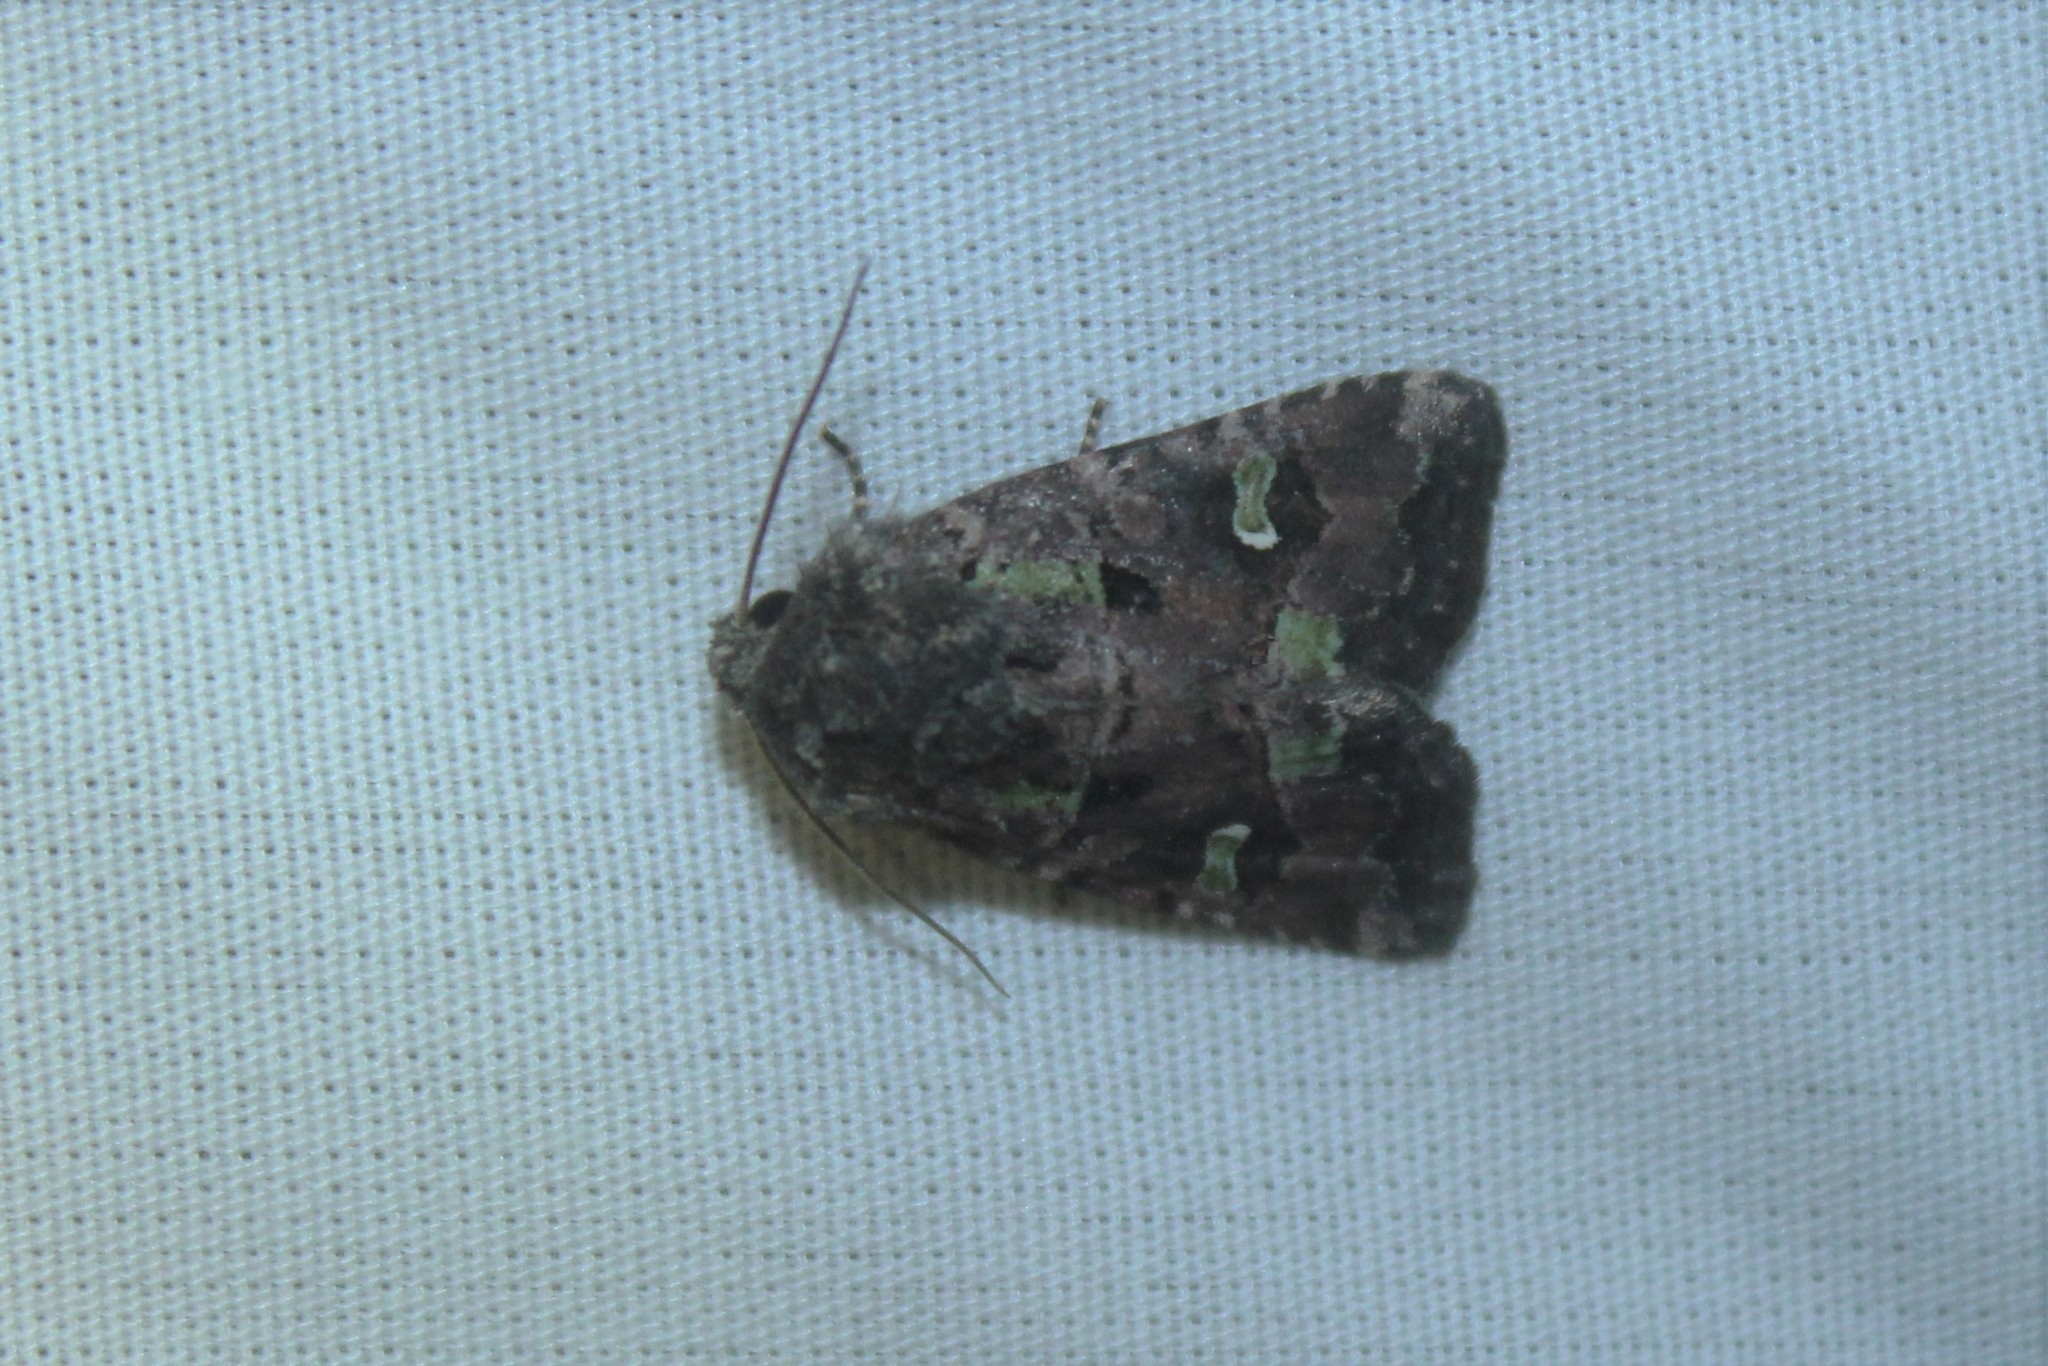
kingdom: Animalia
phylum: Arthropoda
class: Insecta
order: Lepidoptera
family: Noctuidae
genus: Lacinipolia
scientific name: Lacinipolia renigera
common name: Kidney-spotted minor
